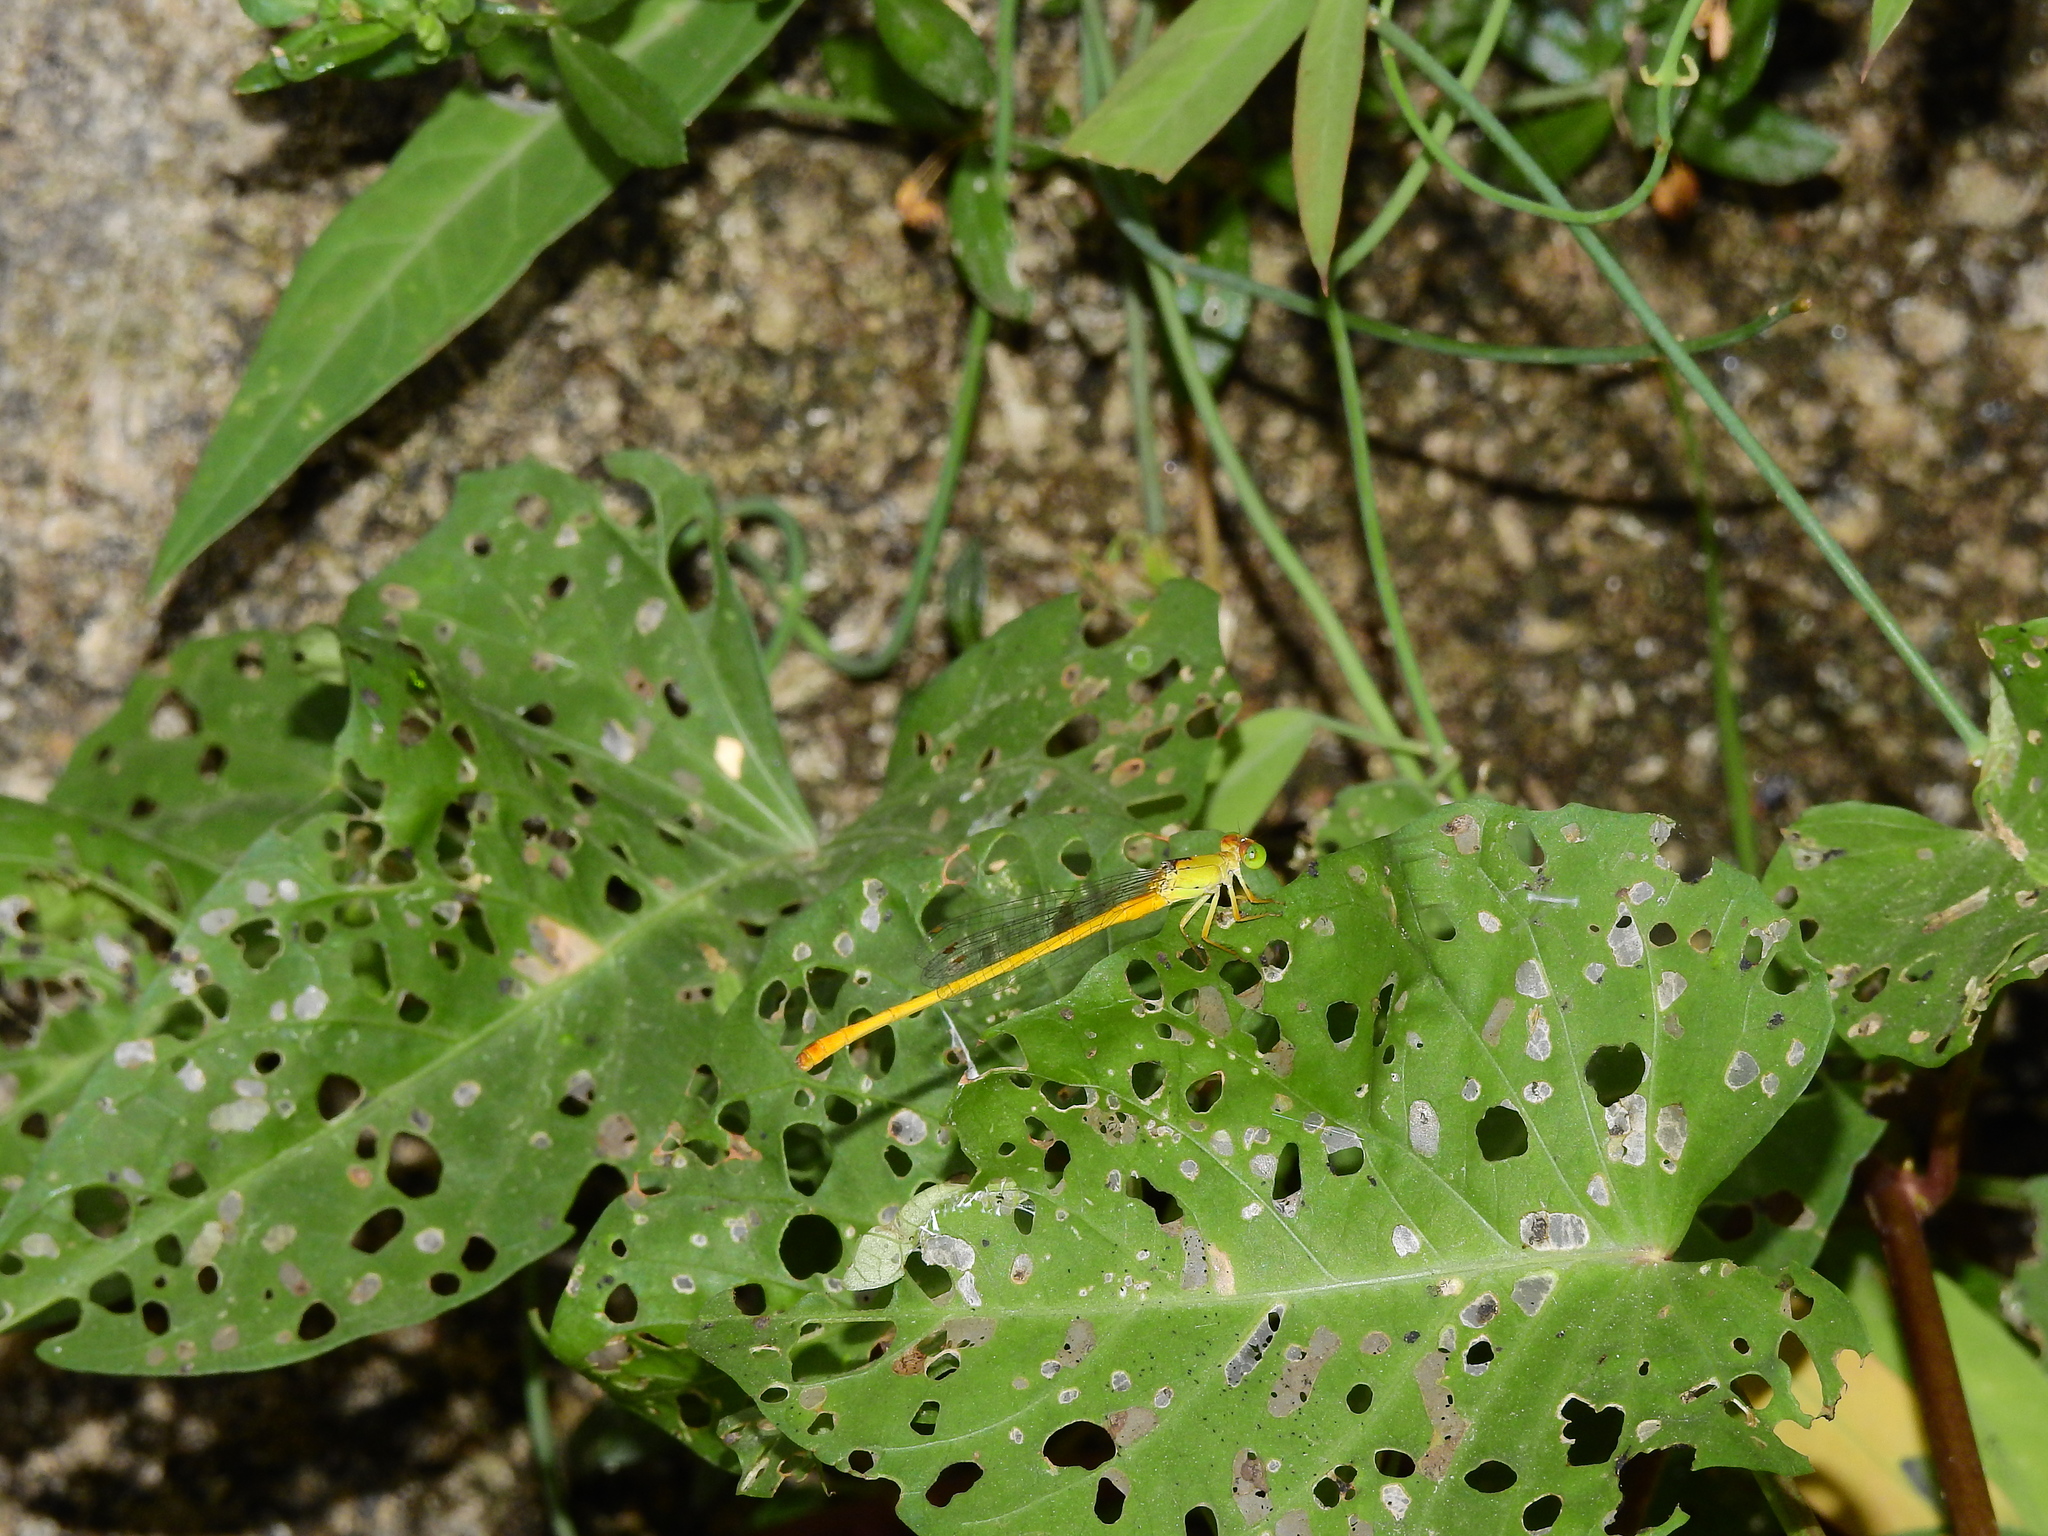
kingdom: Animalia
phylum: Arthropoda
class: Insecta
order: Odonata
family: Coenagrionidae
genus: Ceriagrion
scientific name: Ceriagrion coromandelianum
